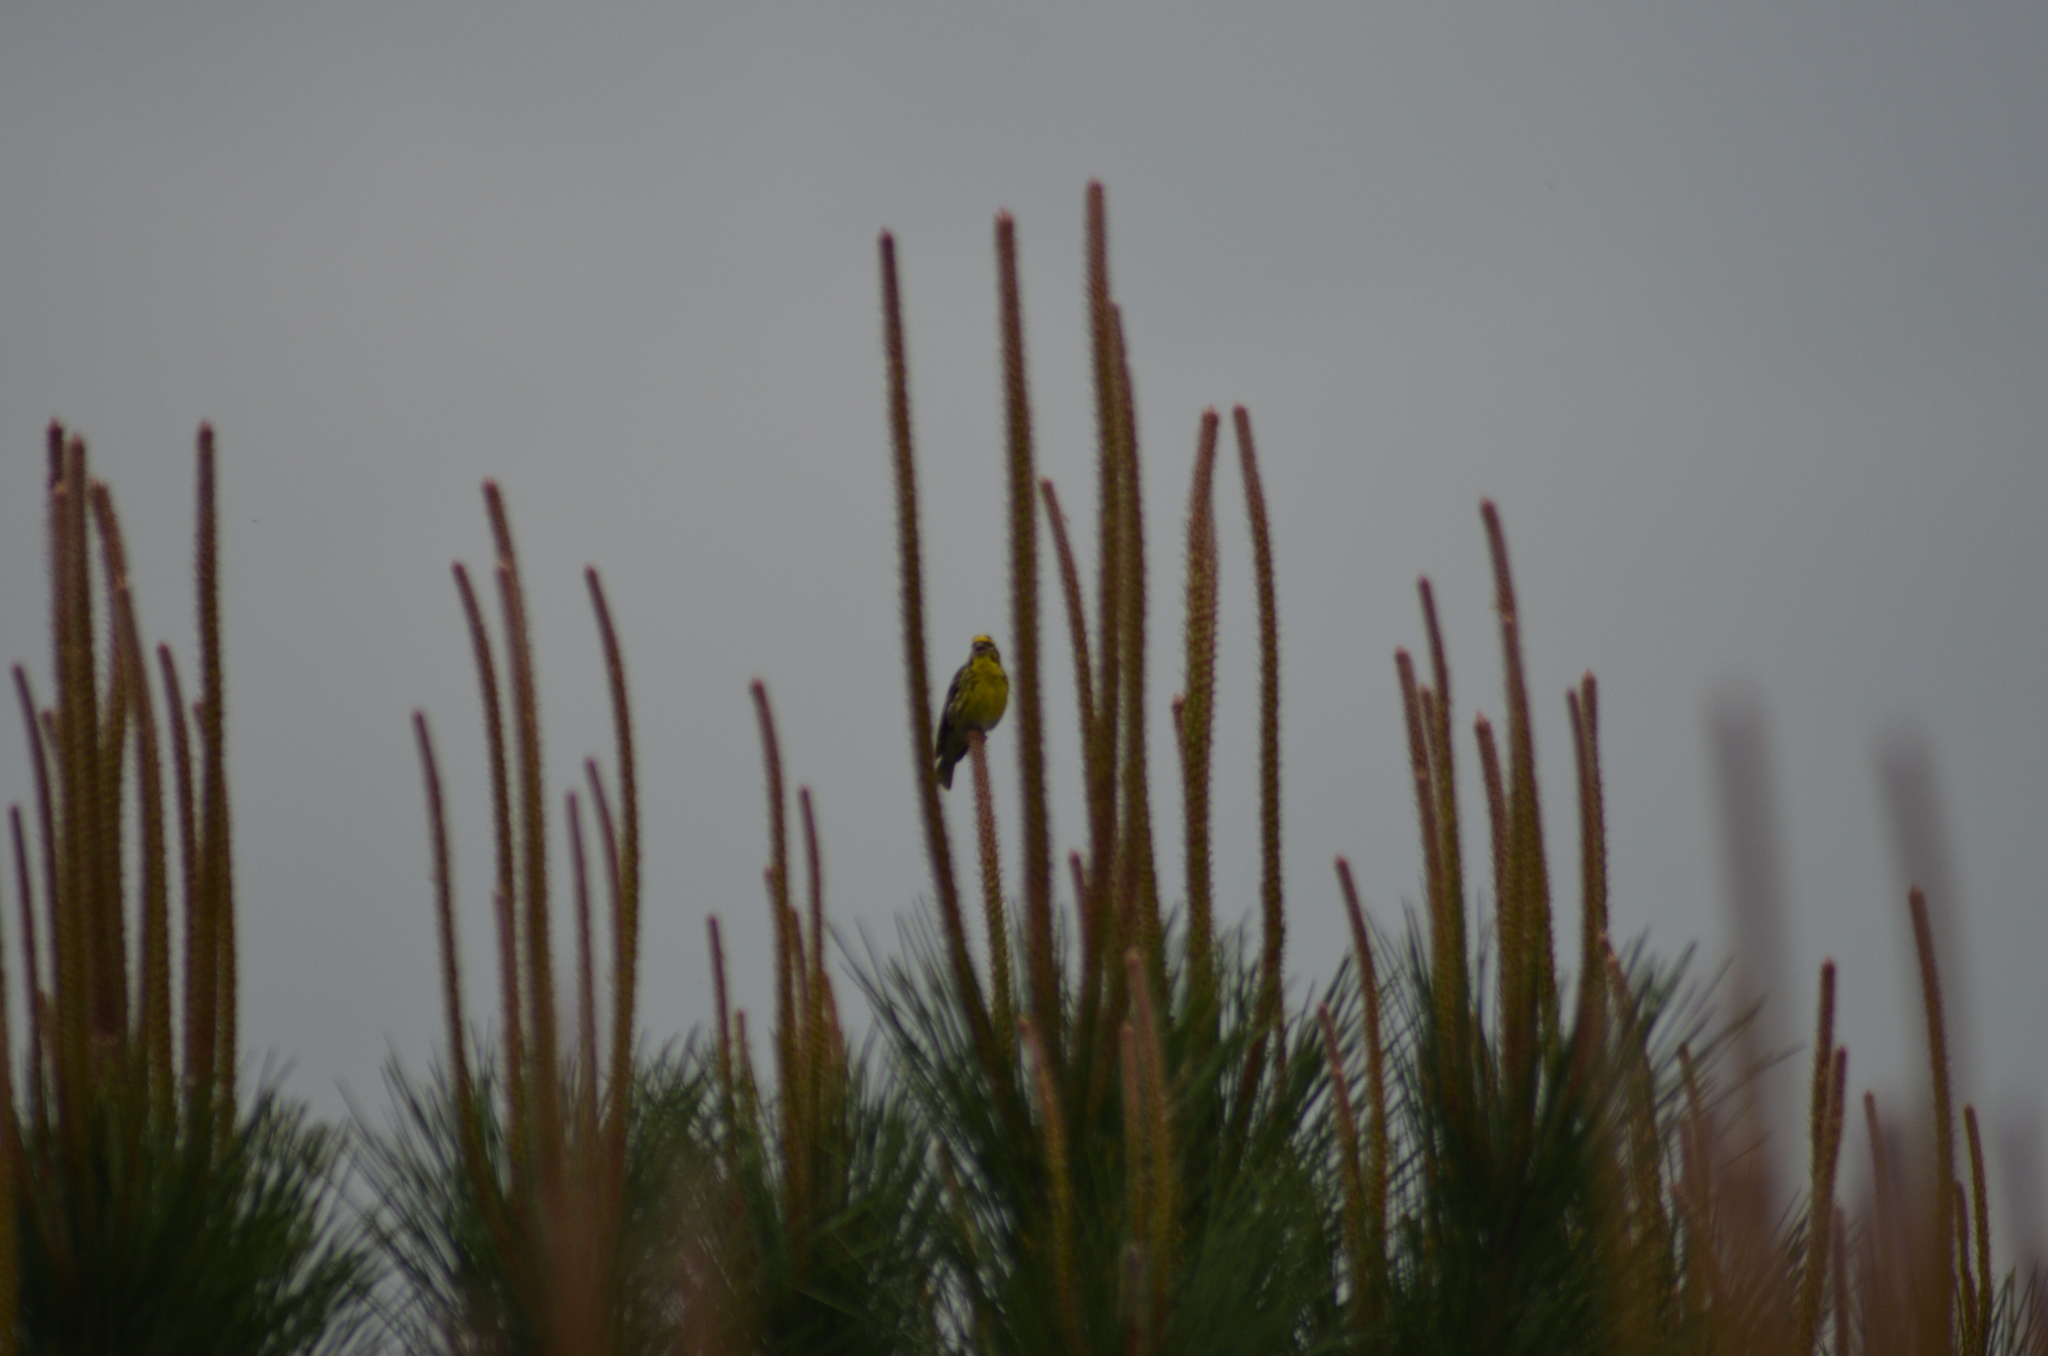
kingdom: Animalia
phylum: Chordata
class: Aves
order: Passeriformes
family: Fringillidae
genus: Serinus
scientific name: Serinus serinus
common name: European serin
